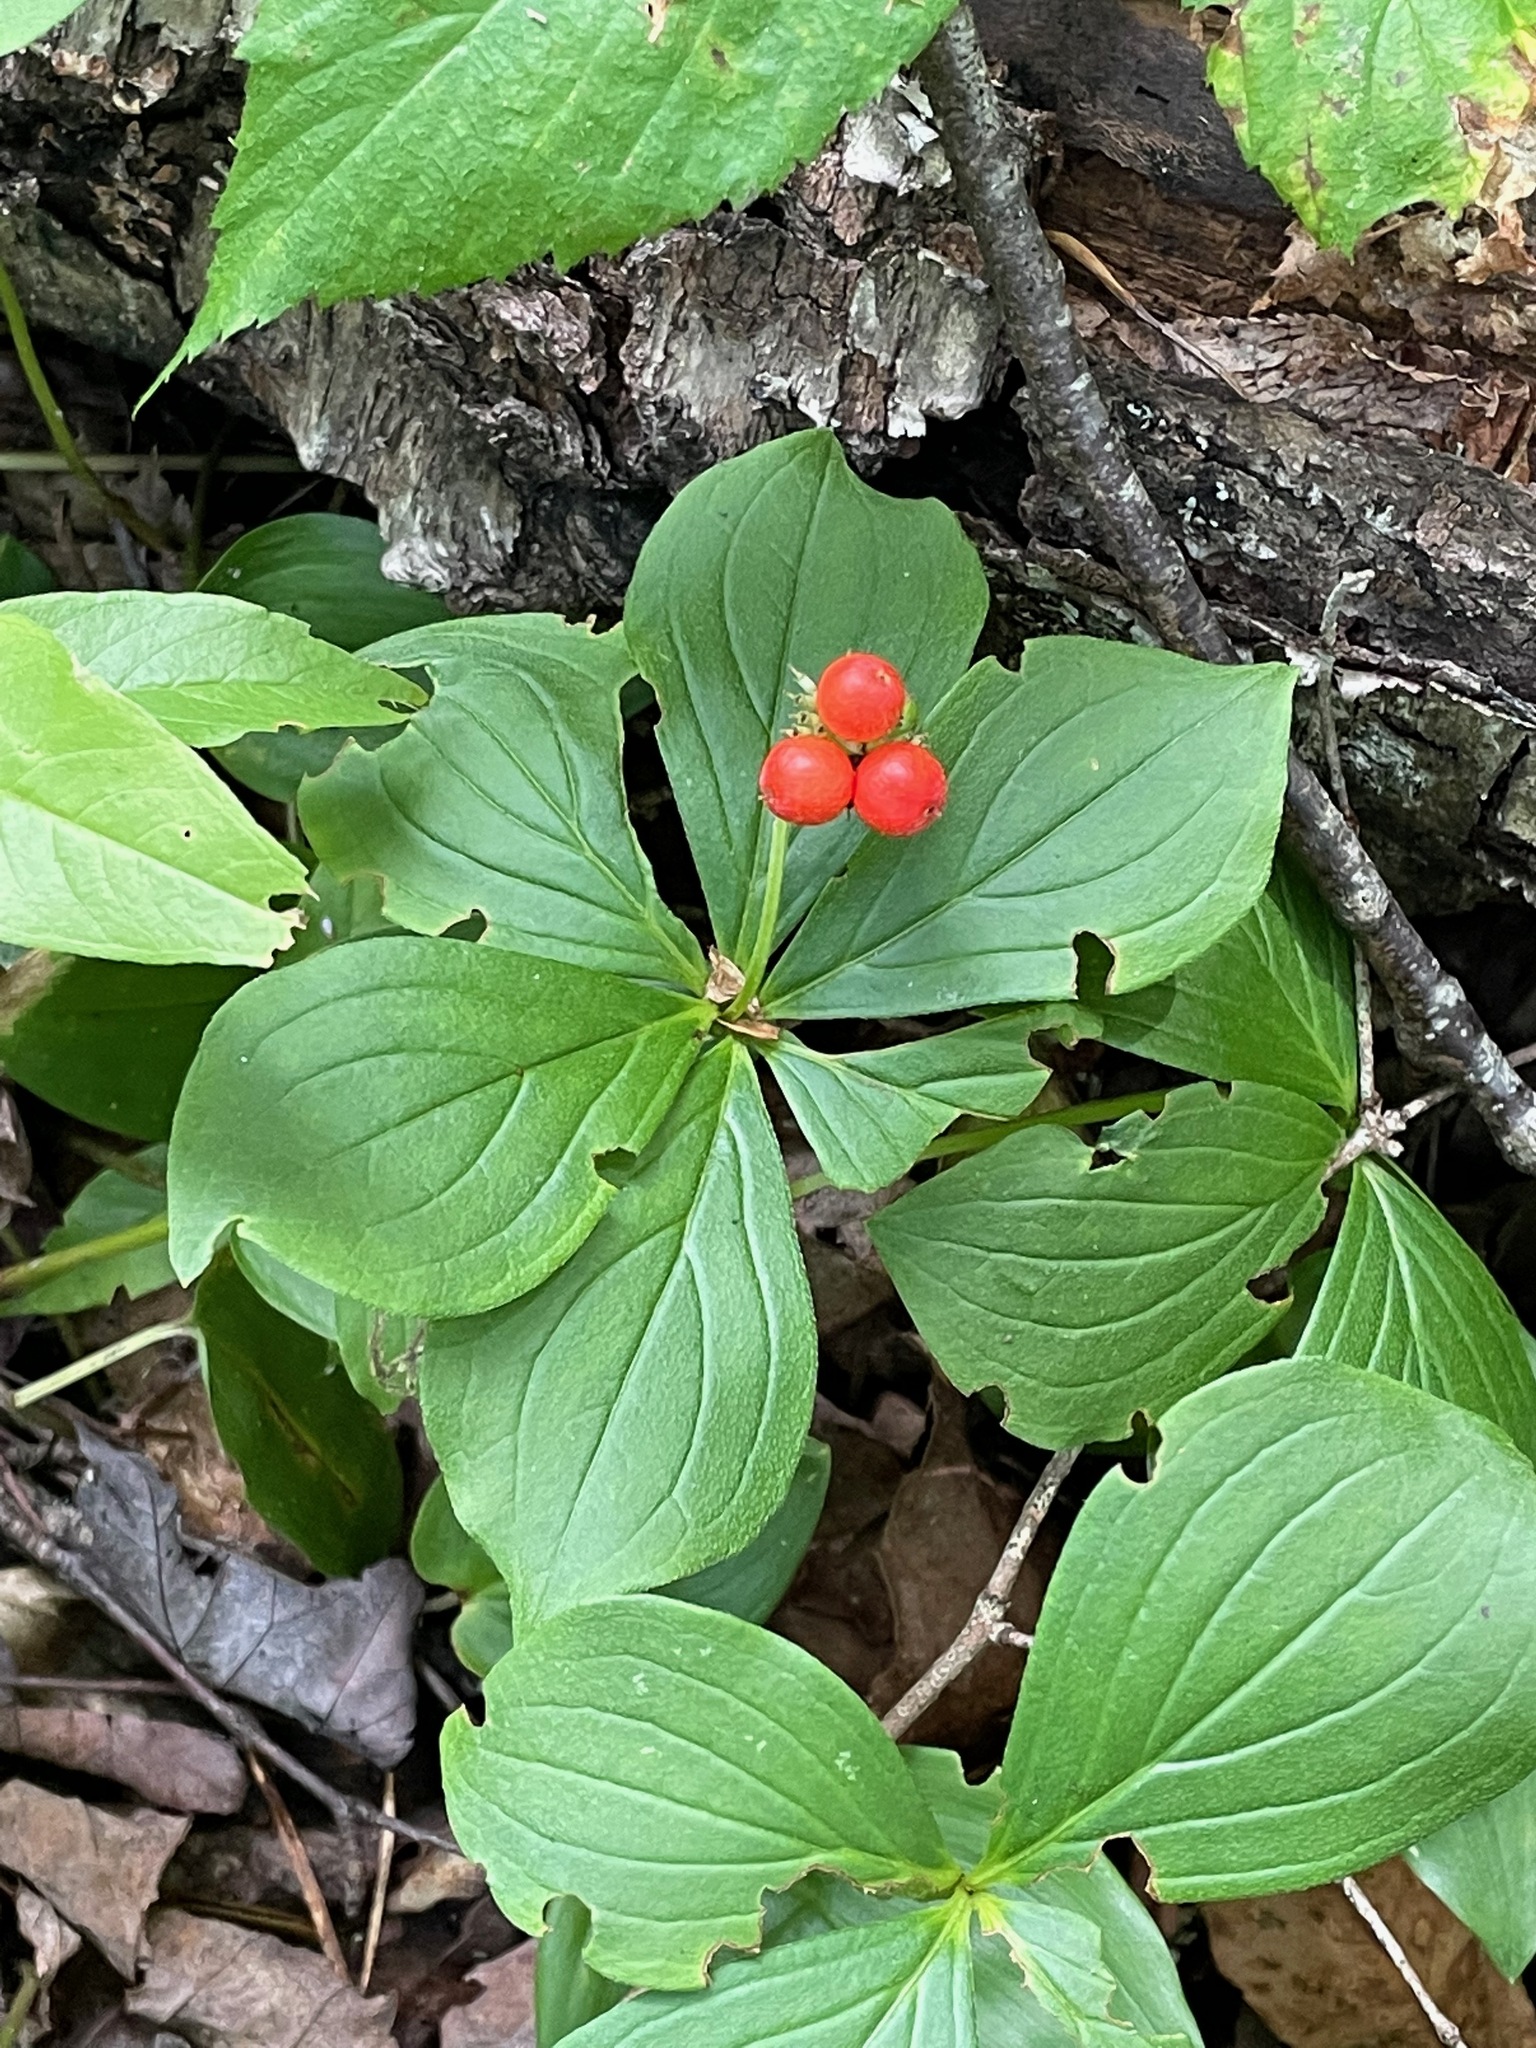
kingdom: Plantae
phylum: Tracheophyta
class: Magnoliopsida
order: Cornales
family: Cornaceae
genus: Cornus
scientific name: Cornus canadensis
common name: Creeping dogwood
